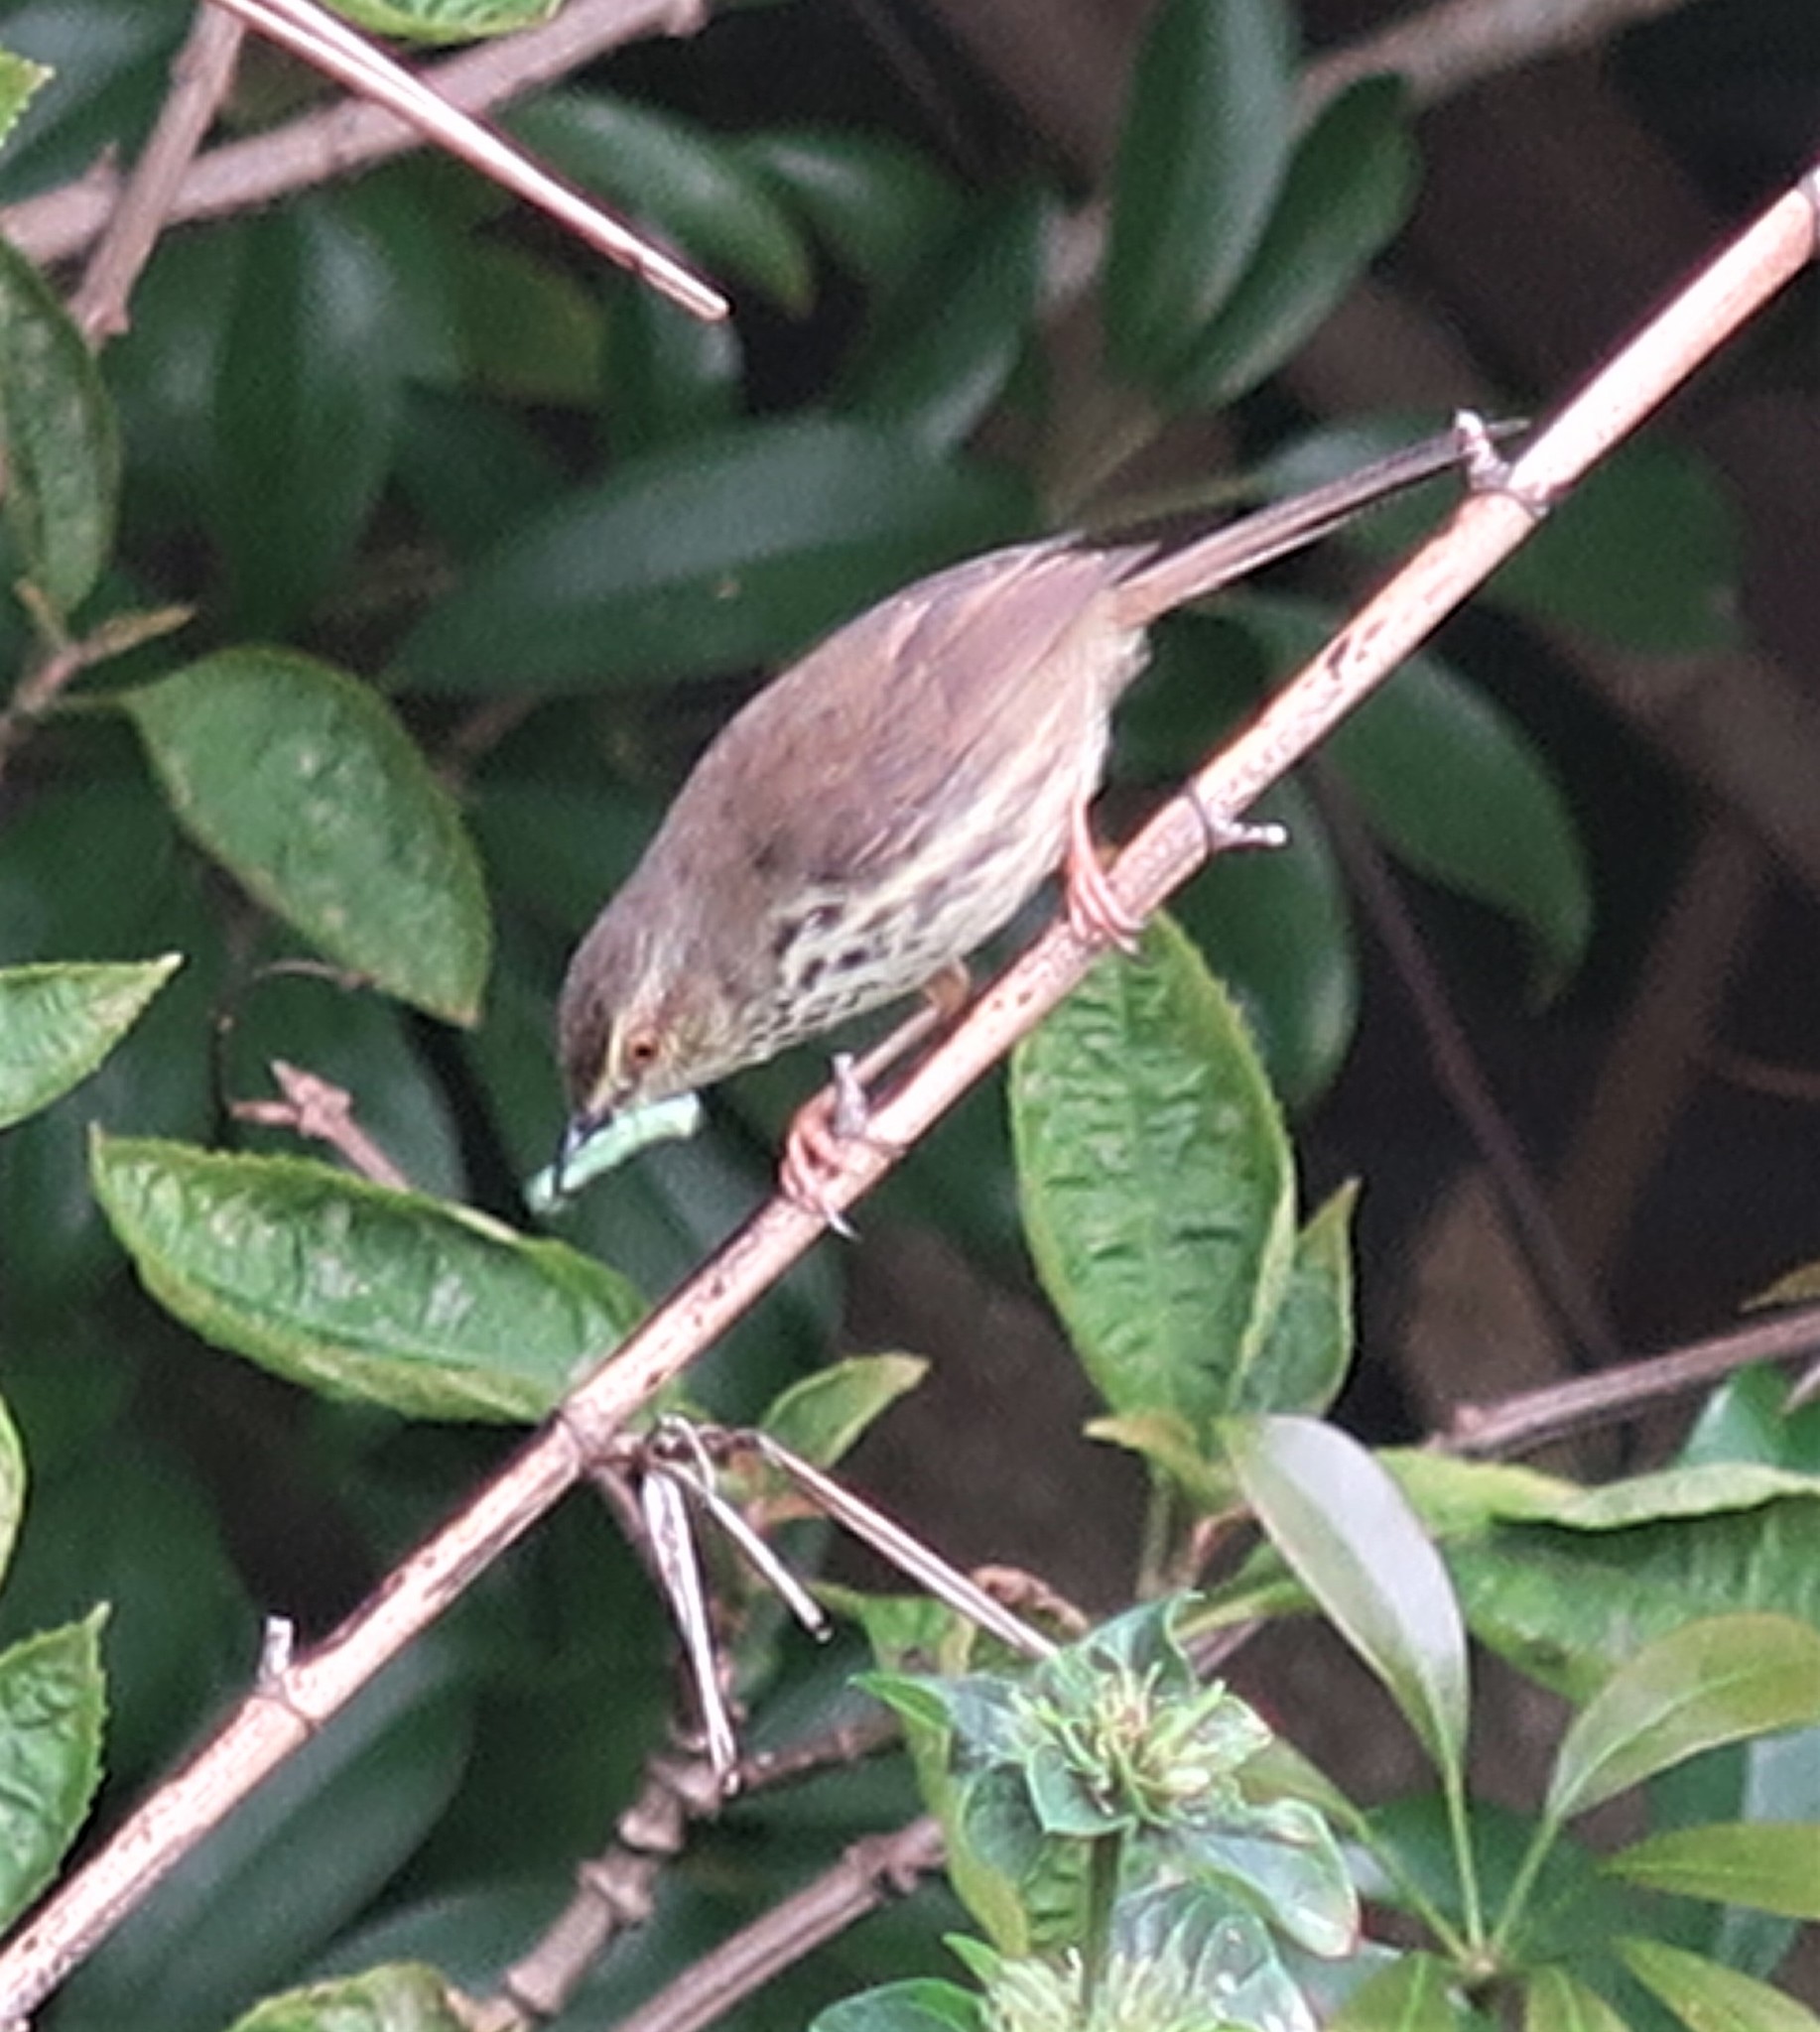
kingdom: Animalia
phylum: Chordata
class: Aves
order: Passeriformes
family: Cisticolidae
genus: Prinia
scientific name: Prinia maculosa
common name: Karoo prinia
